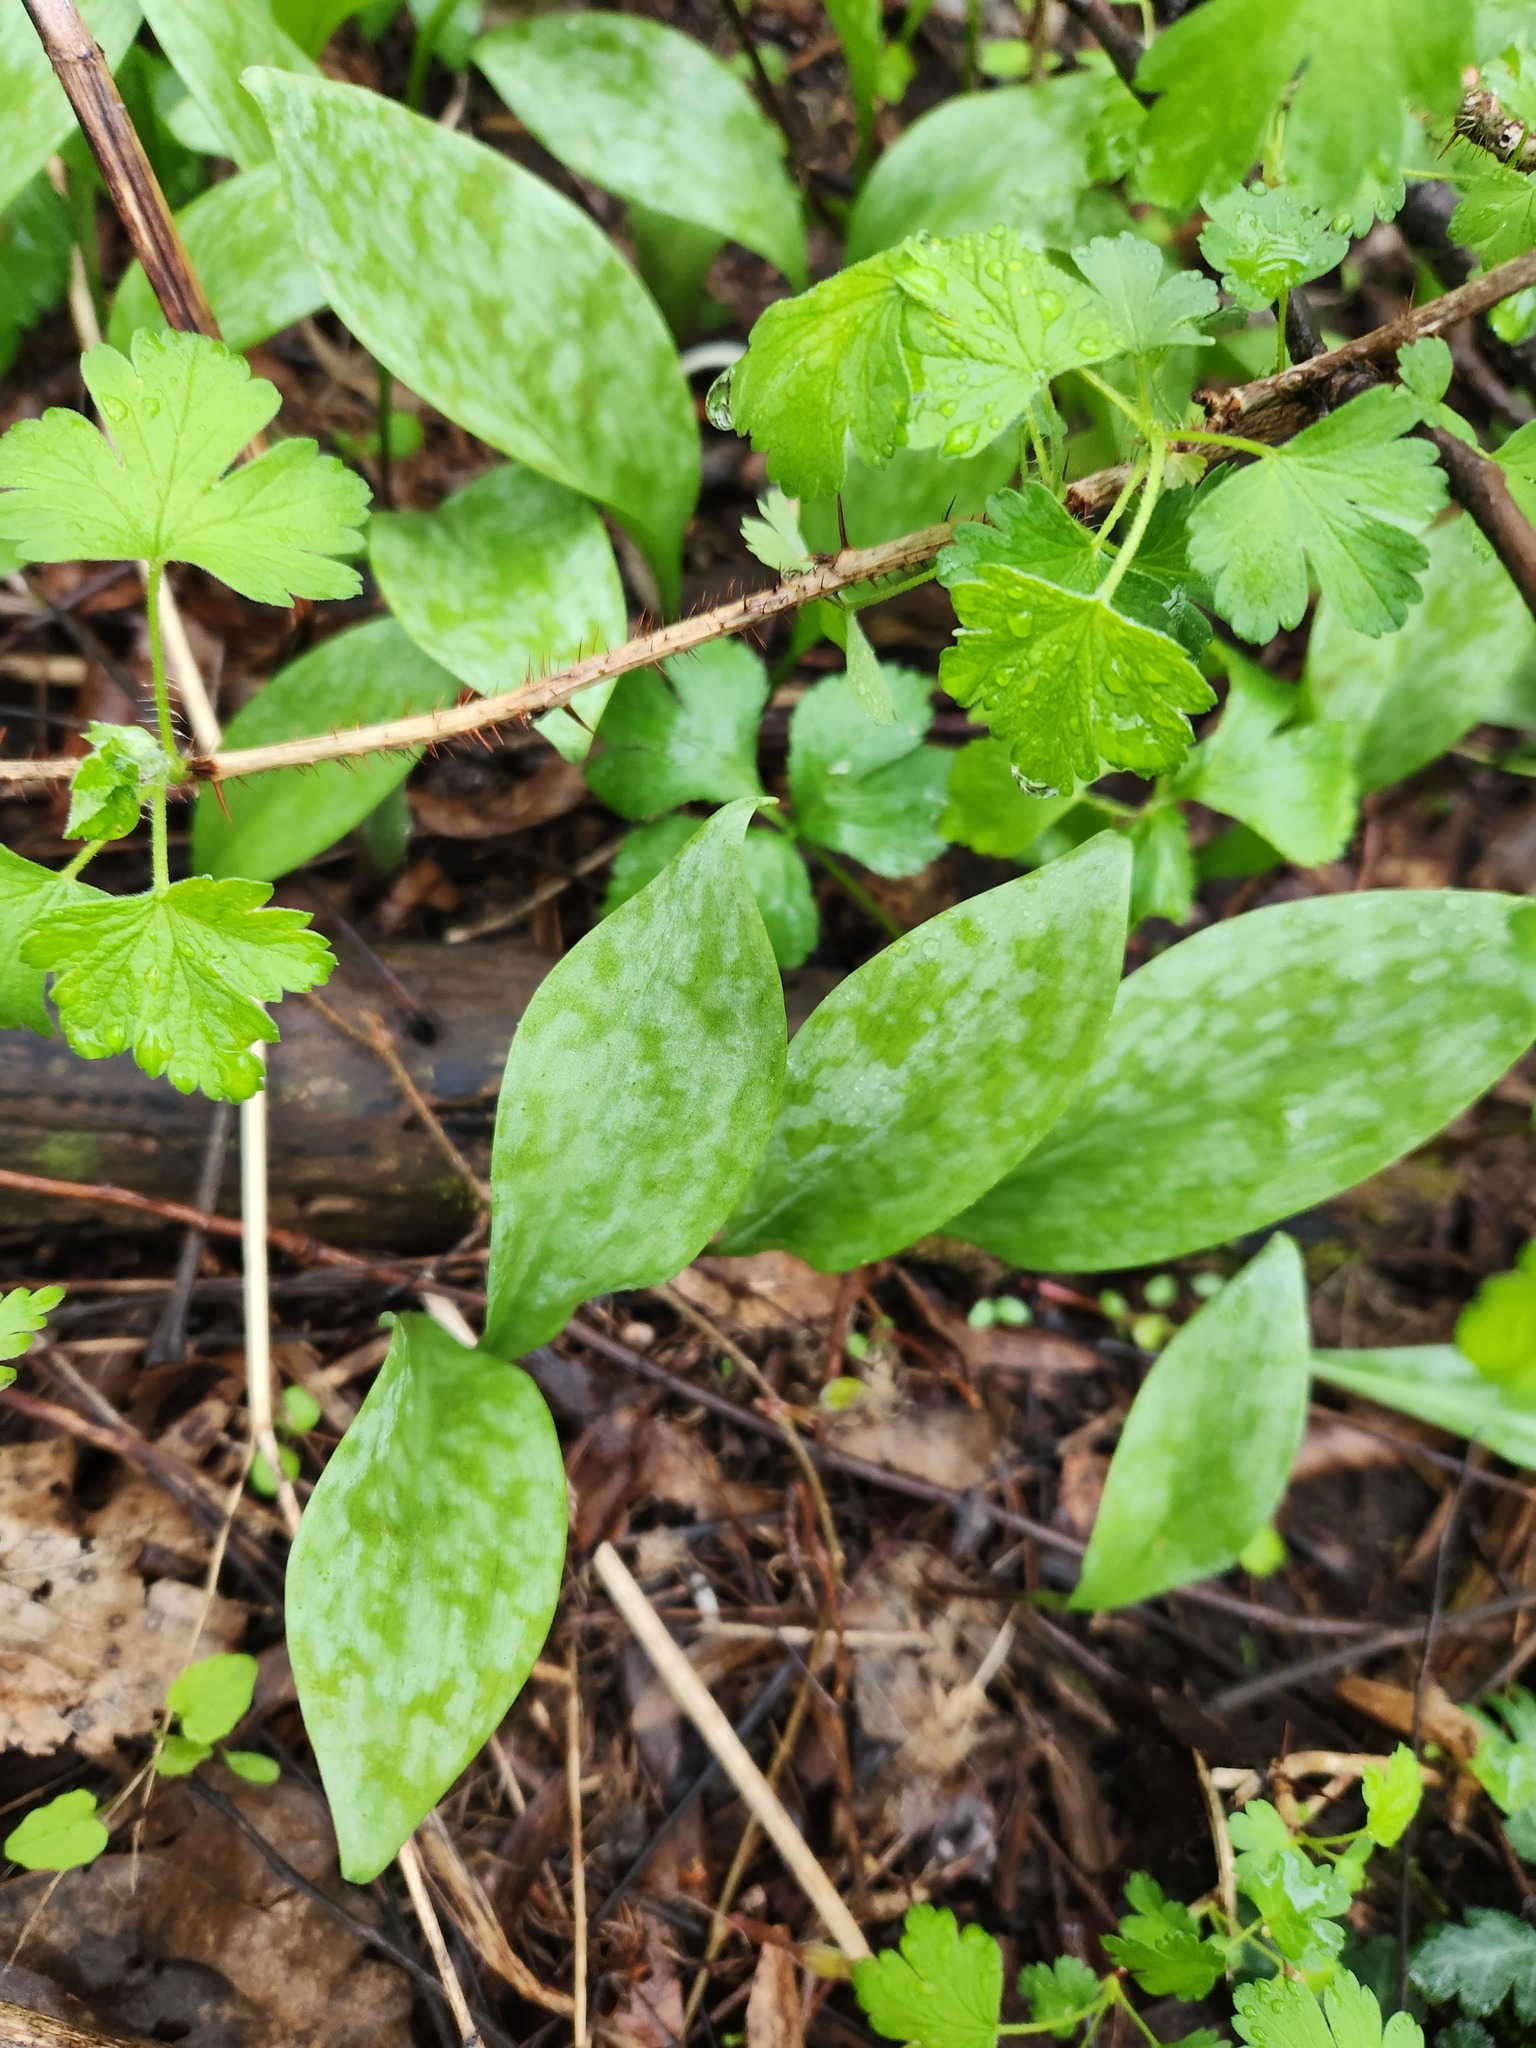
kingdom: Plantae
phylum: Tracheophyta
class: Liliopsida
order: Liliales
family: Liliaceae
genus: Erythronium
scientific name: Erythronium albidum
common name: White trout-lily
